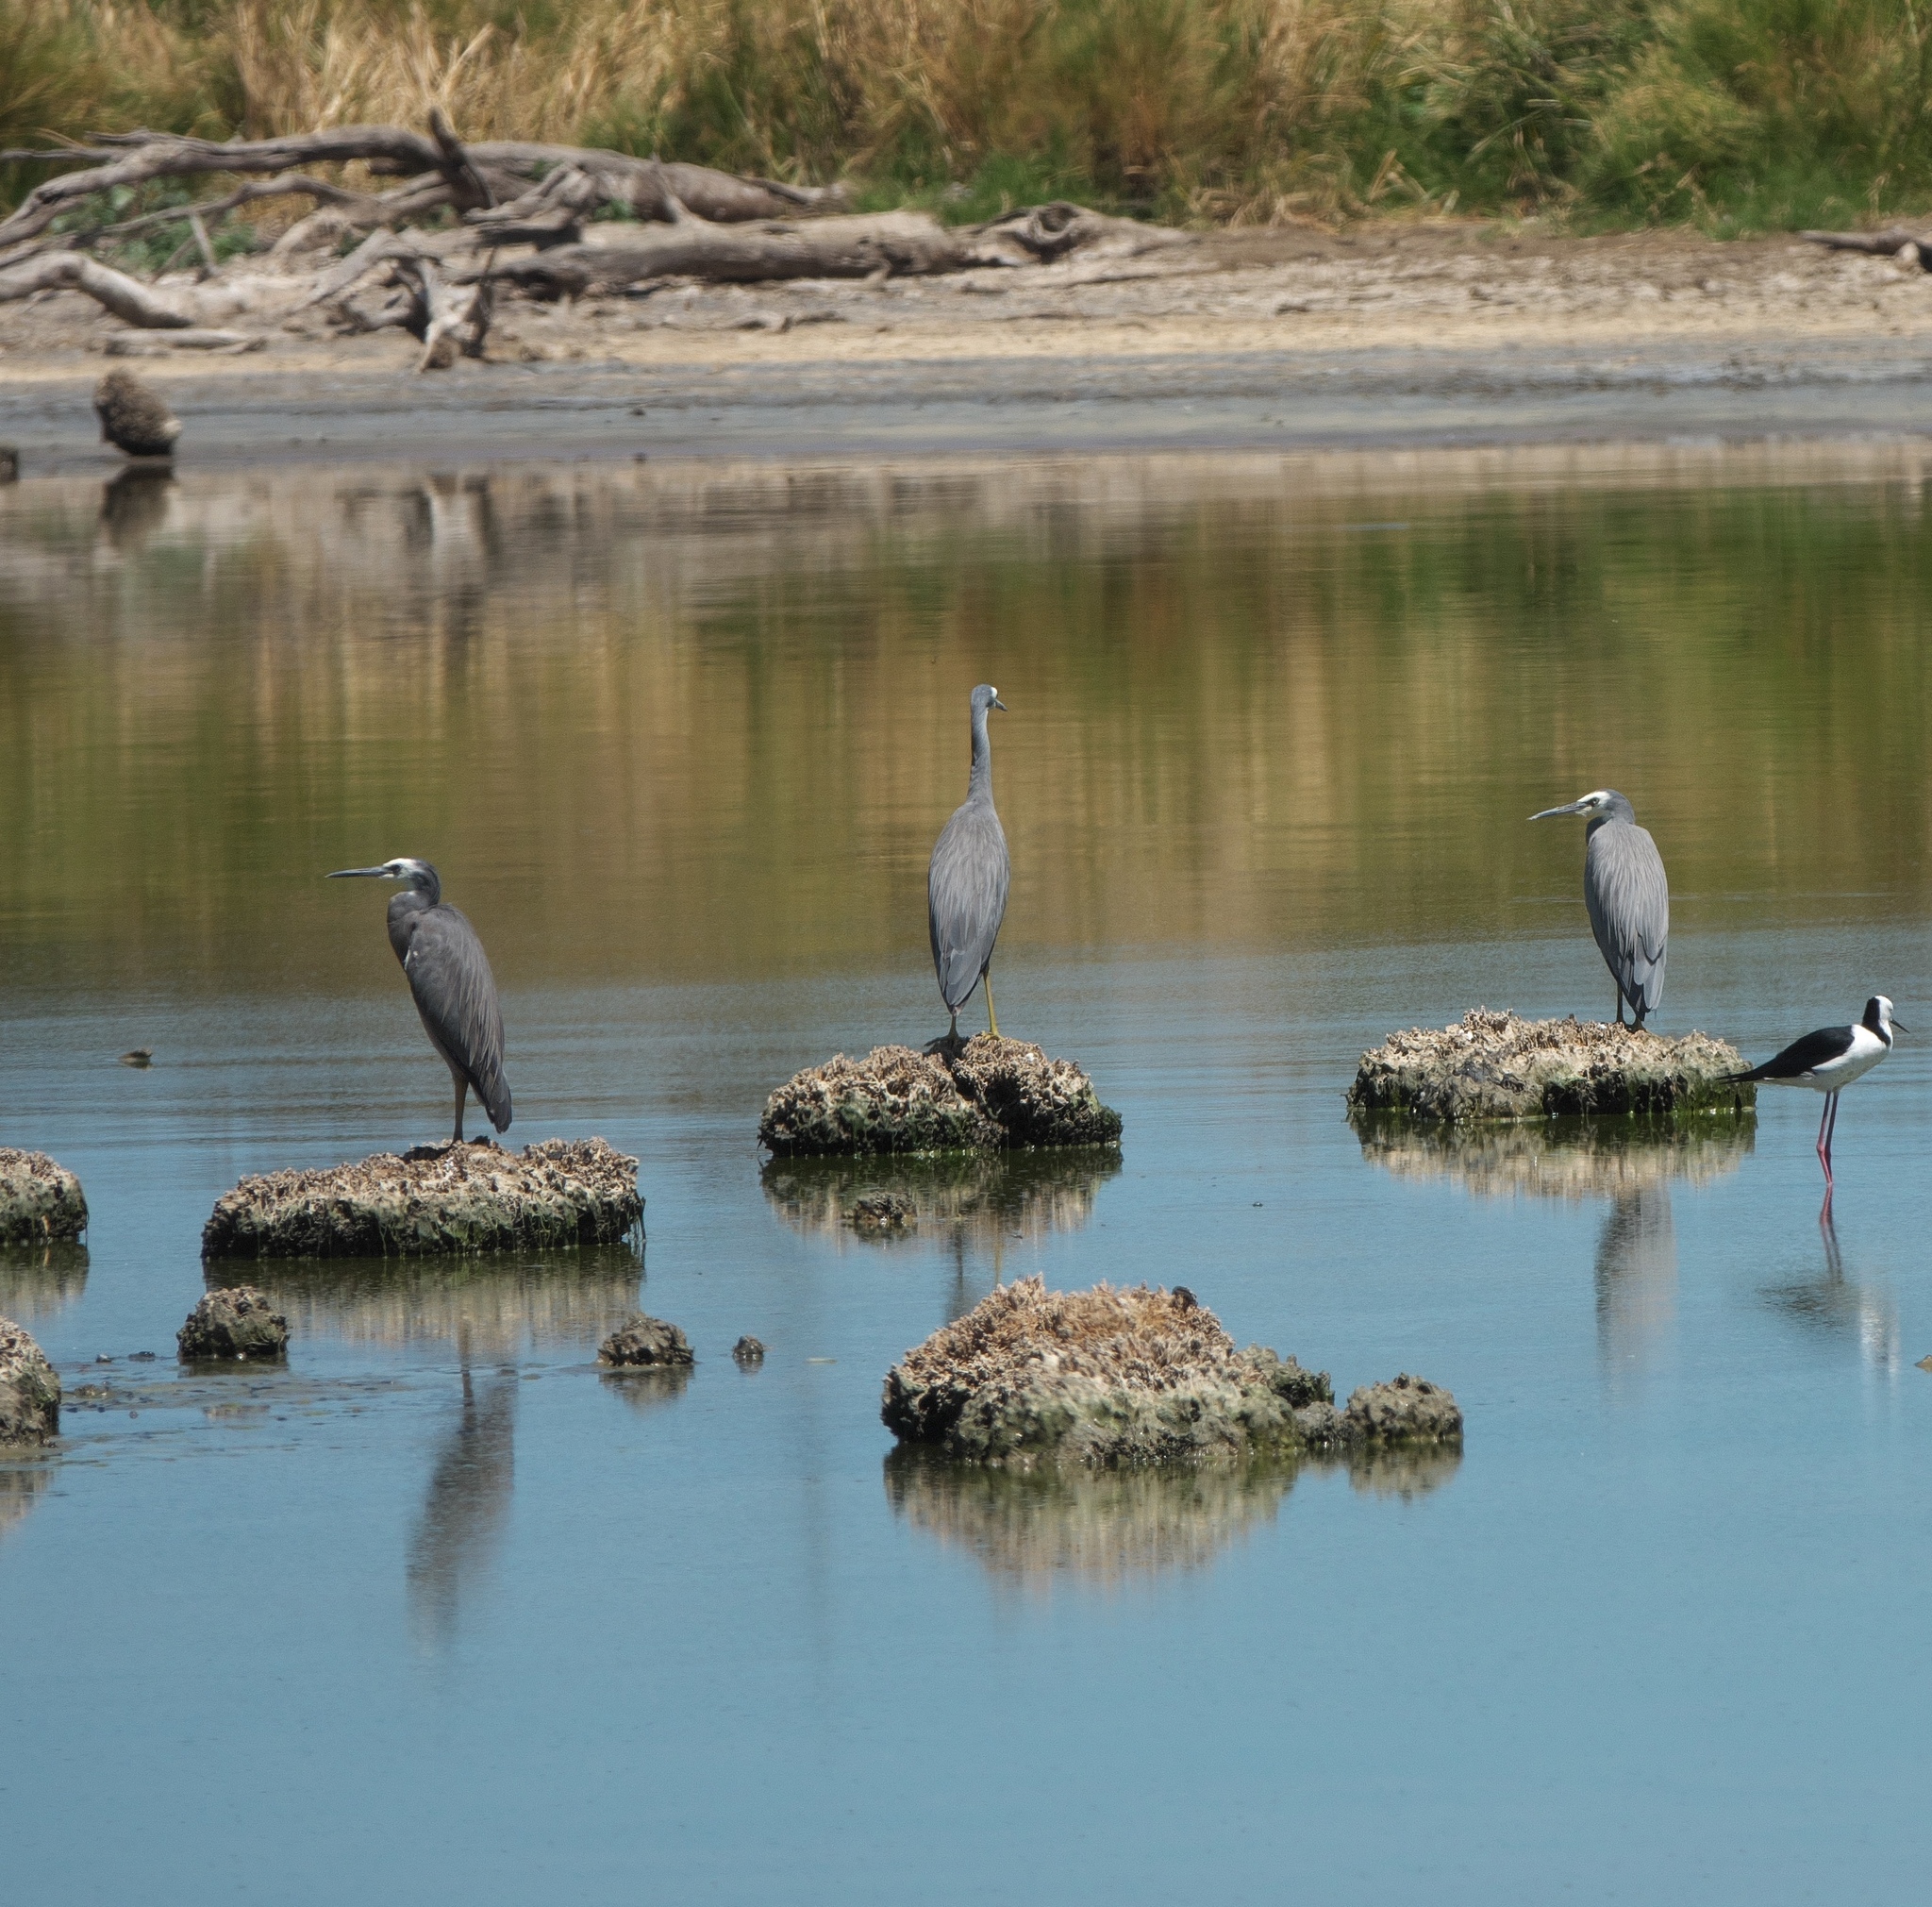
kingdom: Animalia
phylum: Chordata
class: Aves
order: Pelecaniformes
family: Ardeidae
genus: Egretta
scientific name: Egretta novaehollandiae
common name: White-faced heron
